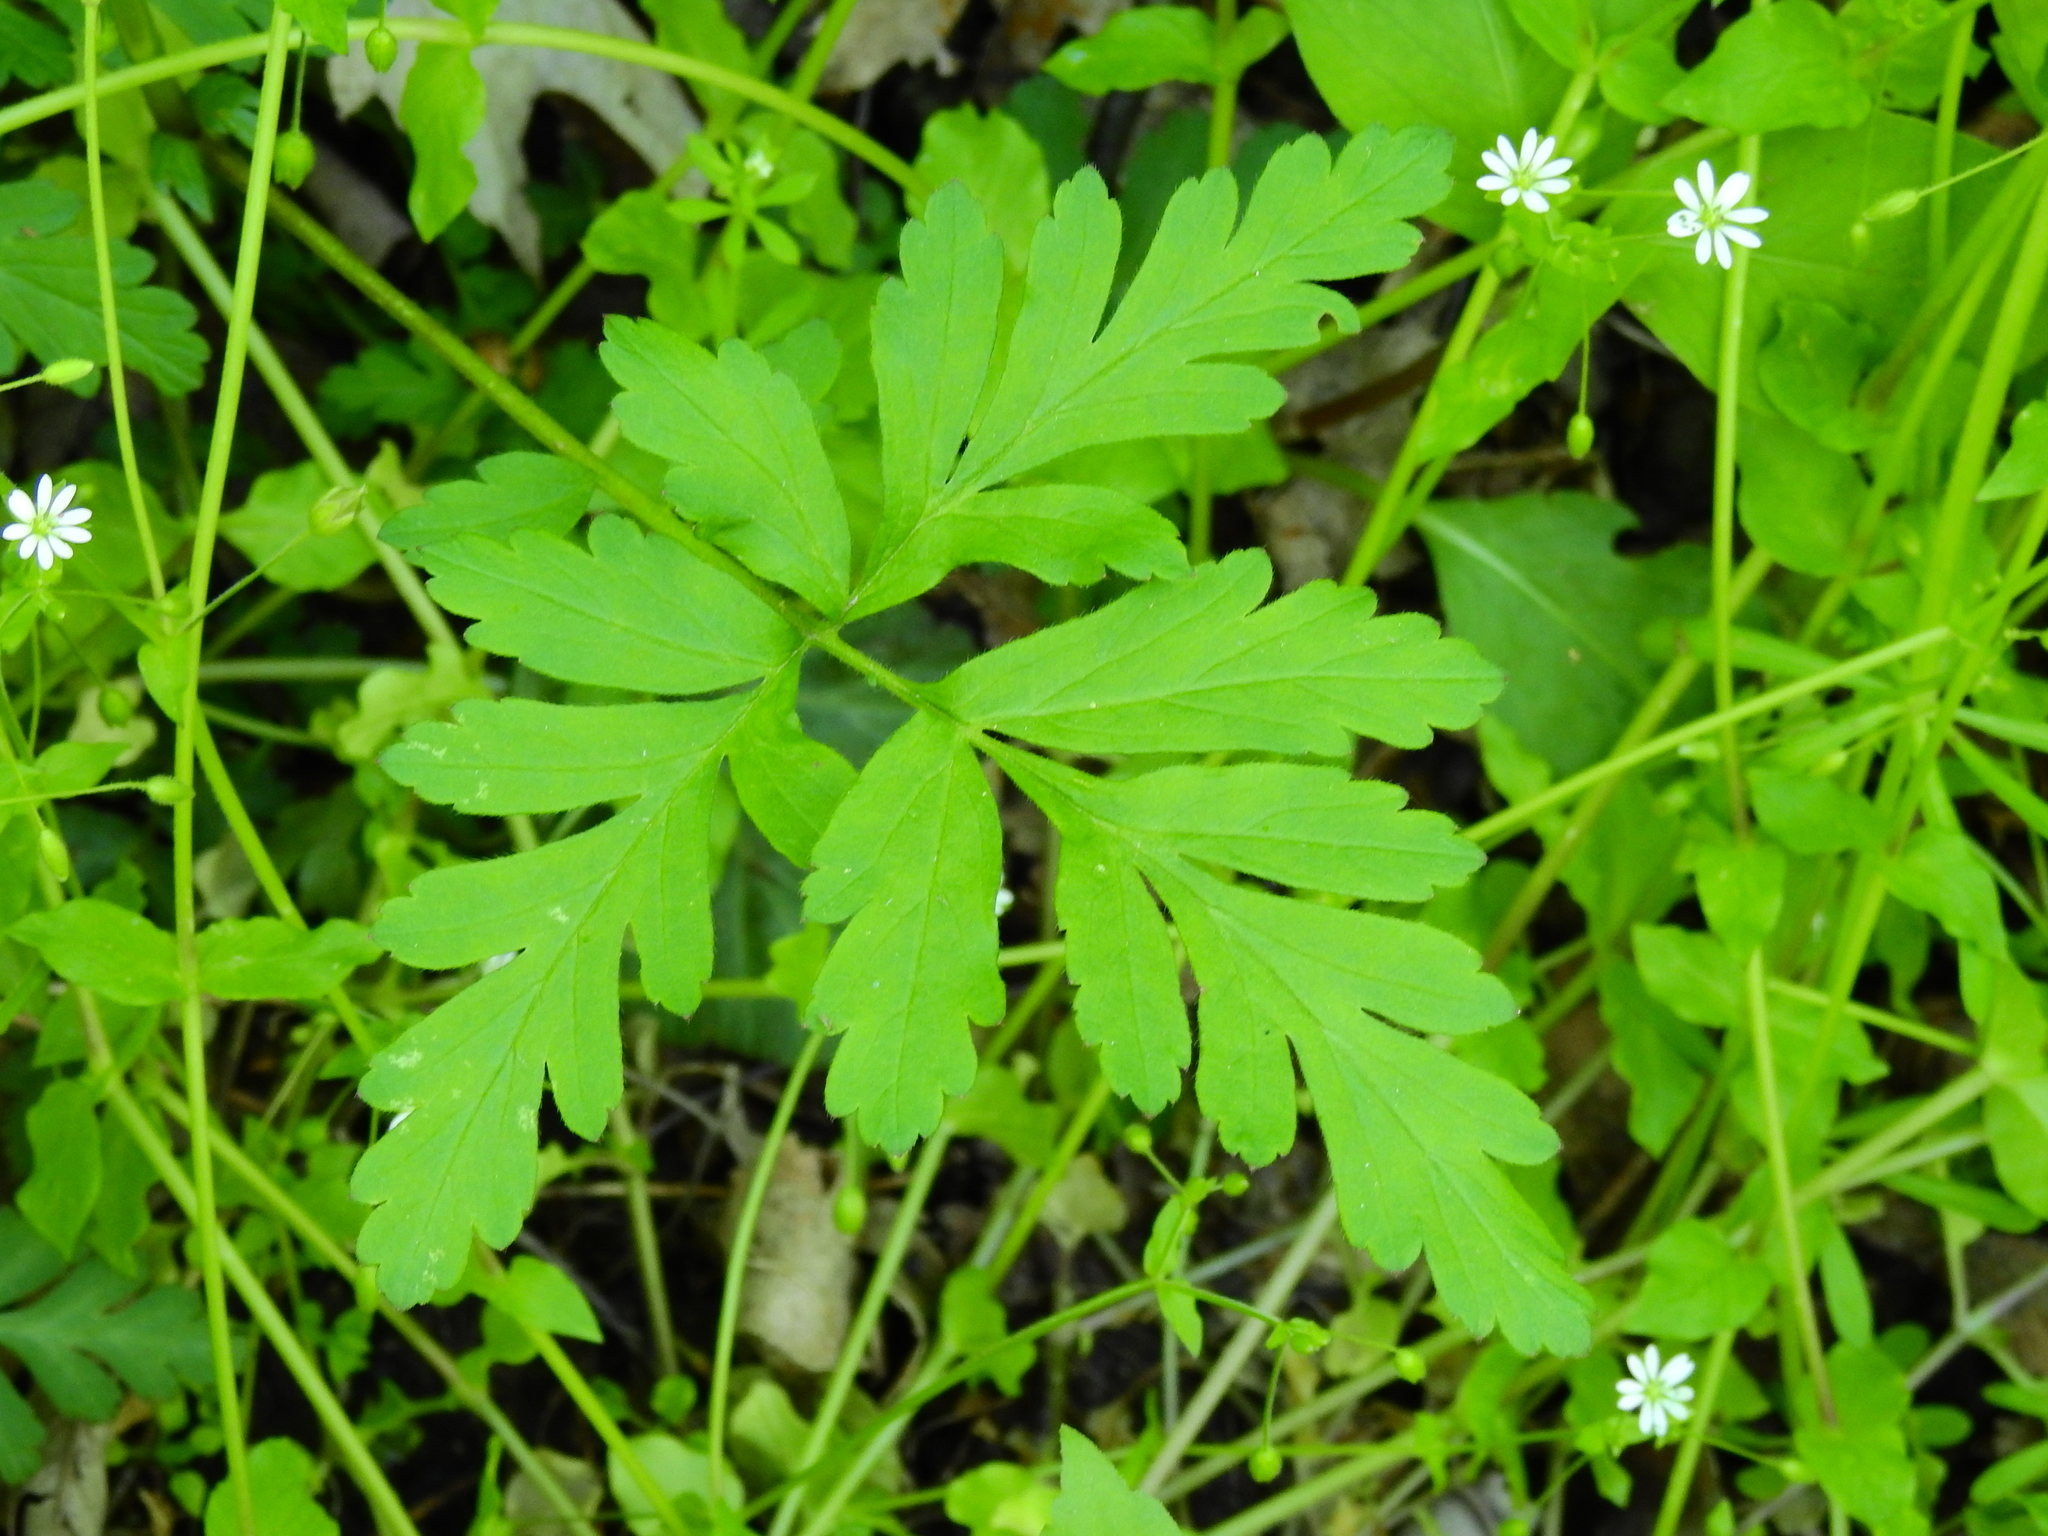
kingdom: Plantae
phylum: Tracheophyta
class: Magnoliopsida
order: Apiales
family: Apiaceae
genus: Chaerophyllum
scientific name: Chaerophyllum procumbens
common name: Spreading chervil
